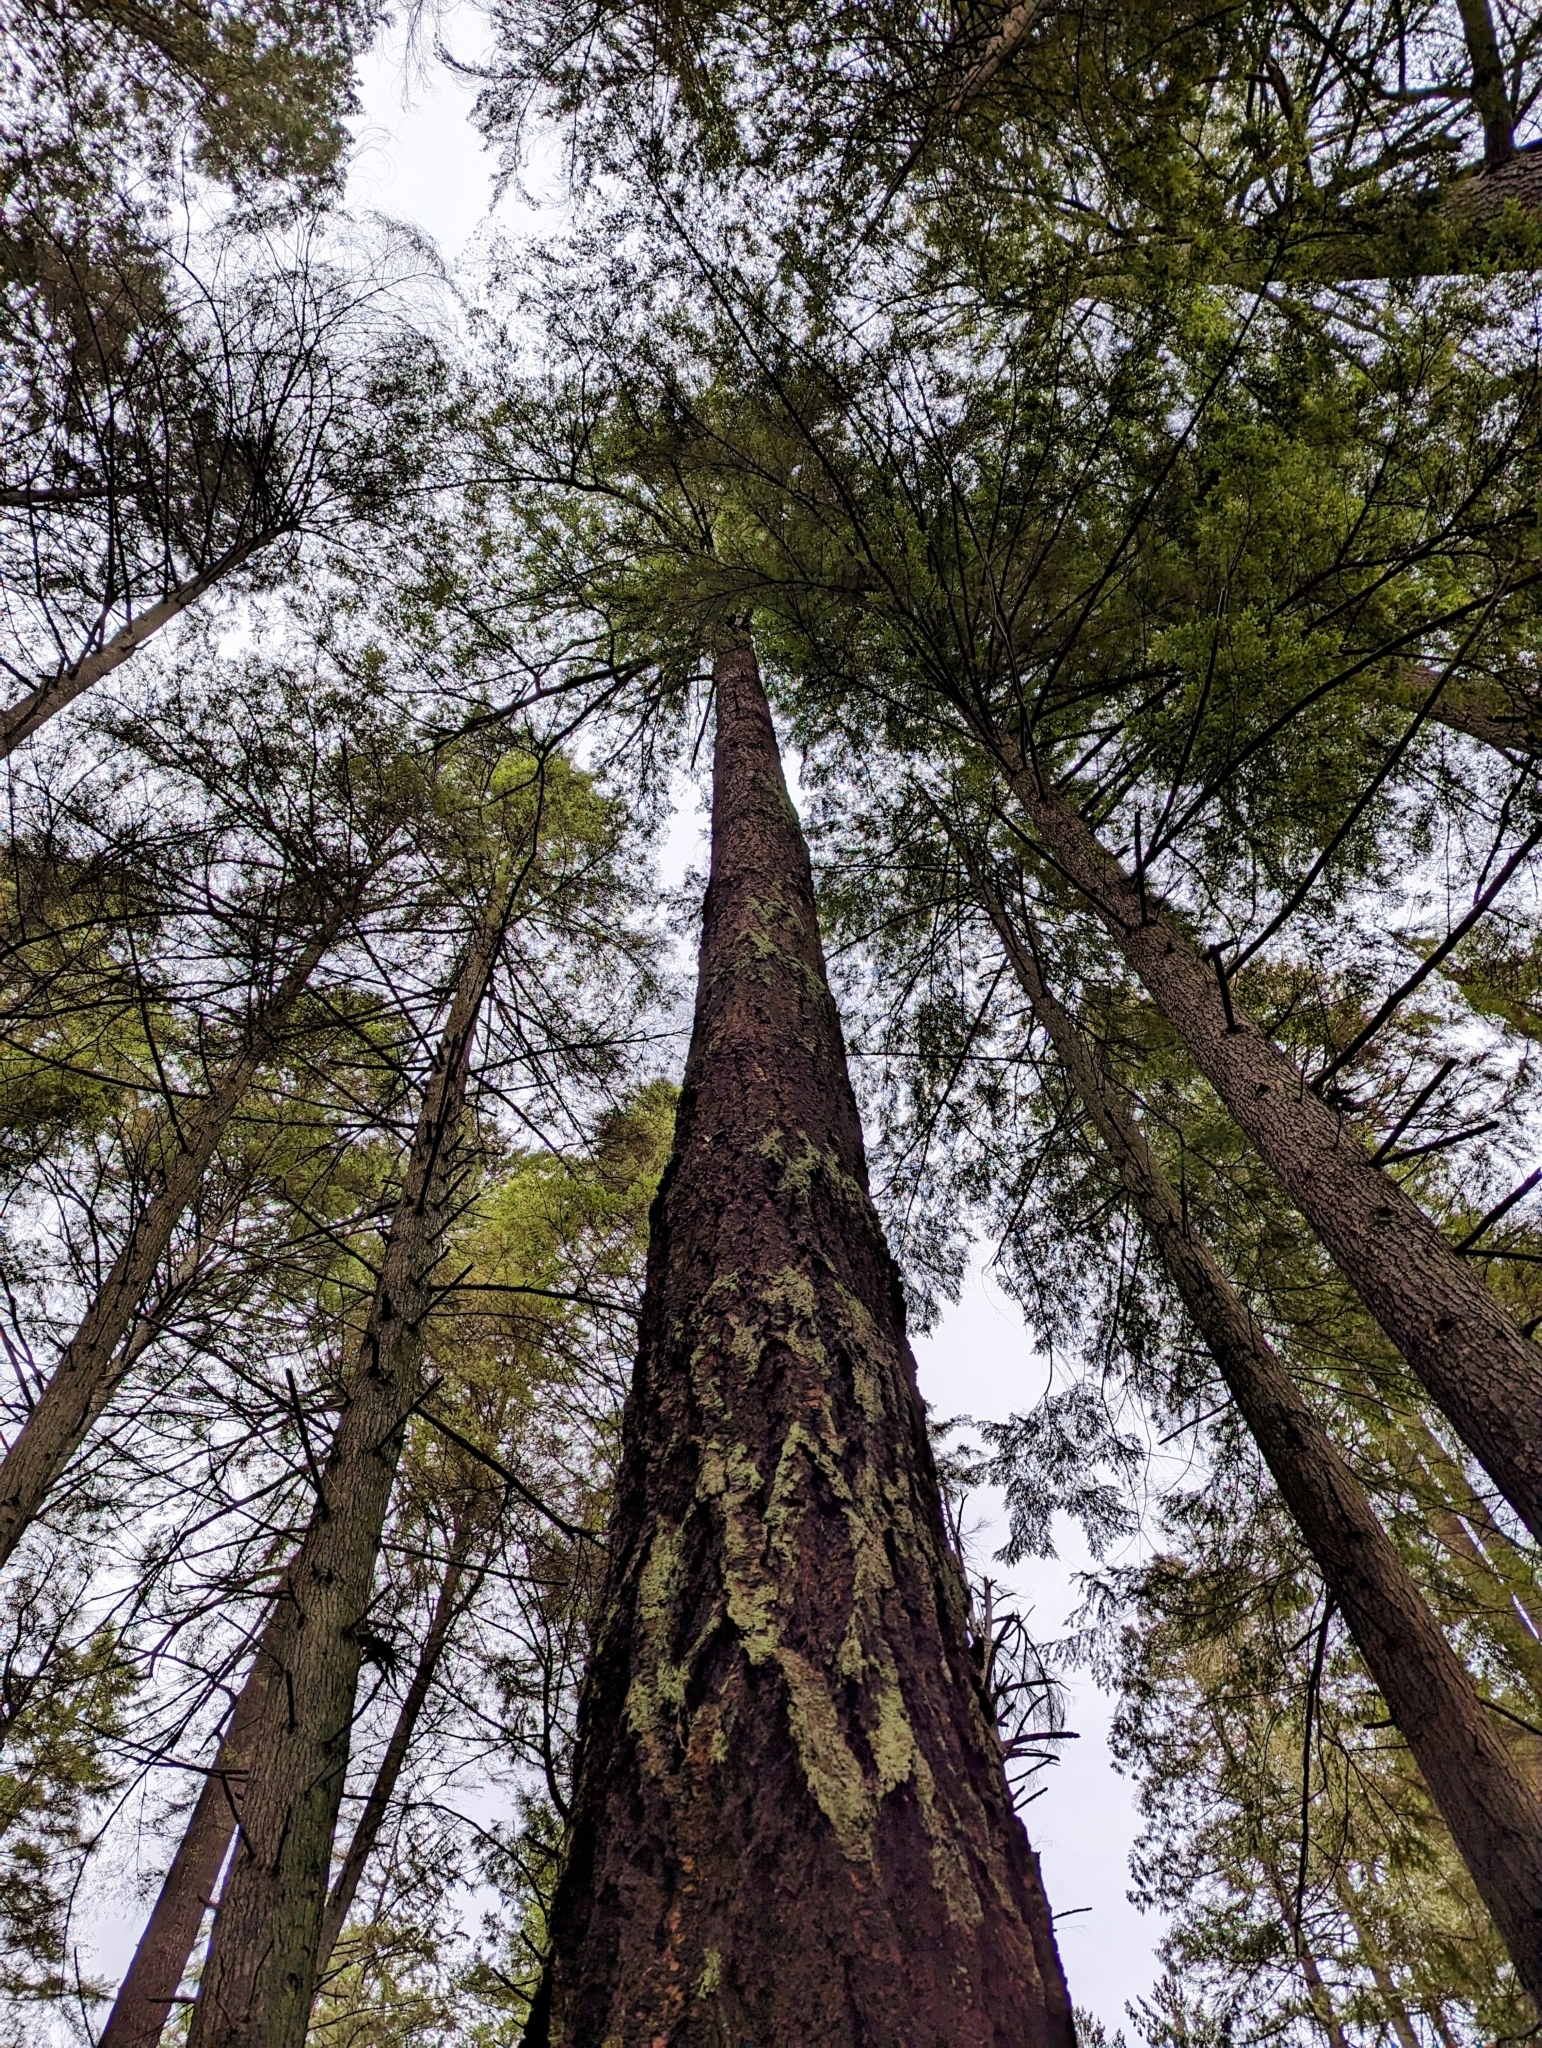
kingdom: Plantae
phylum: Tracheophyta
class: Pinopsida
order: Pinales
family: Pinaceae
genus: Pseudotsuga
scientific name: Pseudotsuga menziesii
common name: Douglas fir
